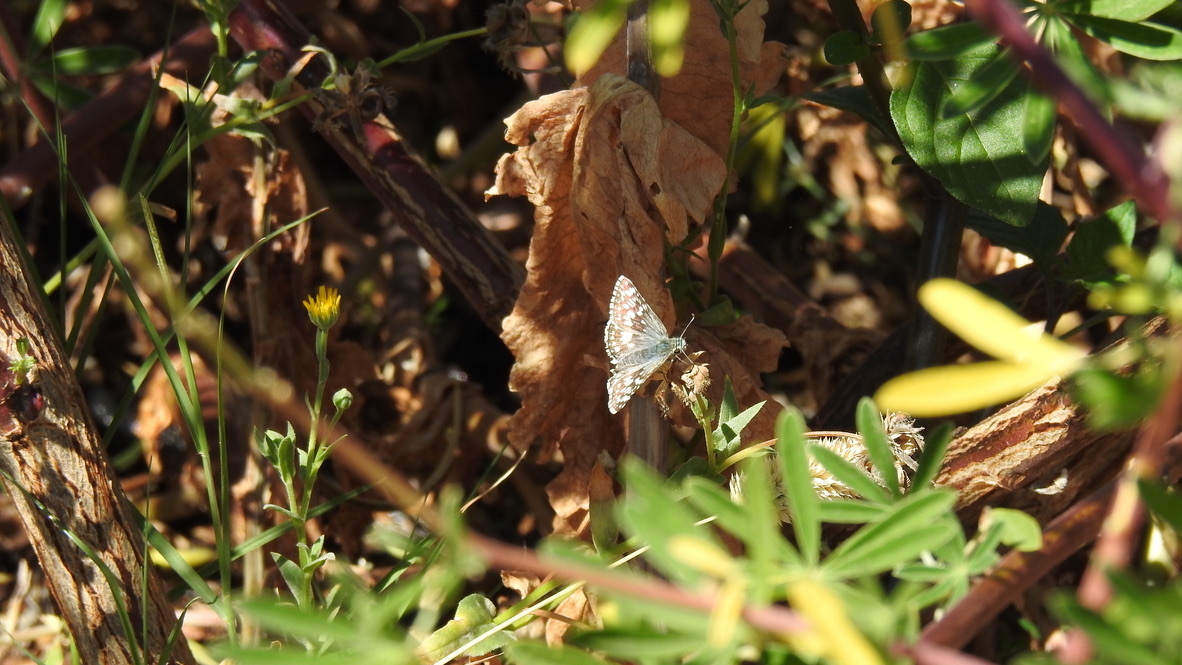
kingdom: Animalia
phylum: Arthropoda
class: Insecta
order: Lepidoptera
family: Hesperiidae
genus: Burnsius
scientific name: Burnsius communis
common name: Common checkered-skipper
